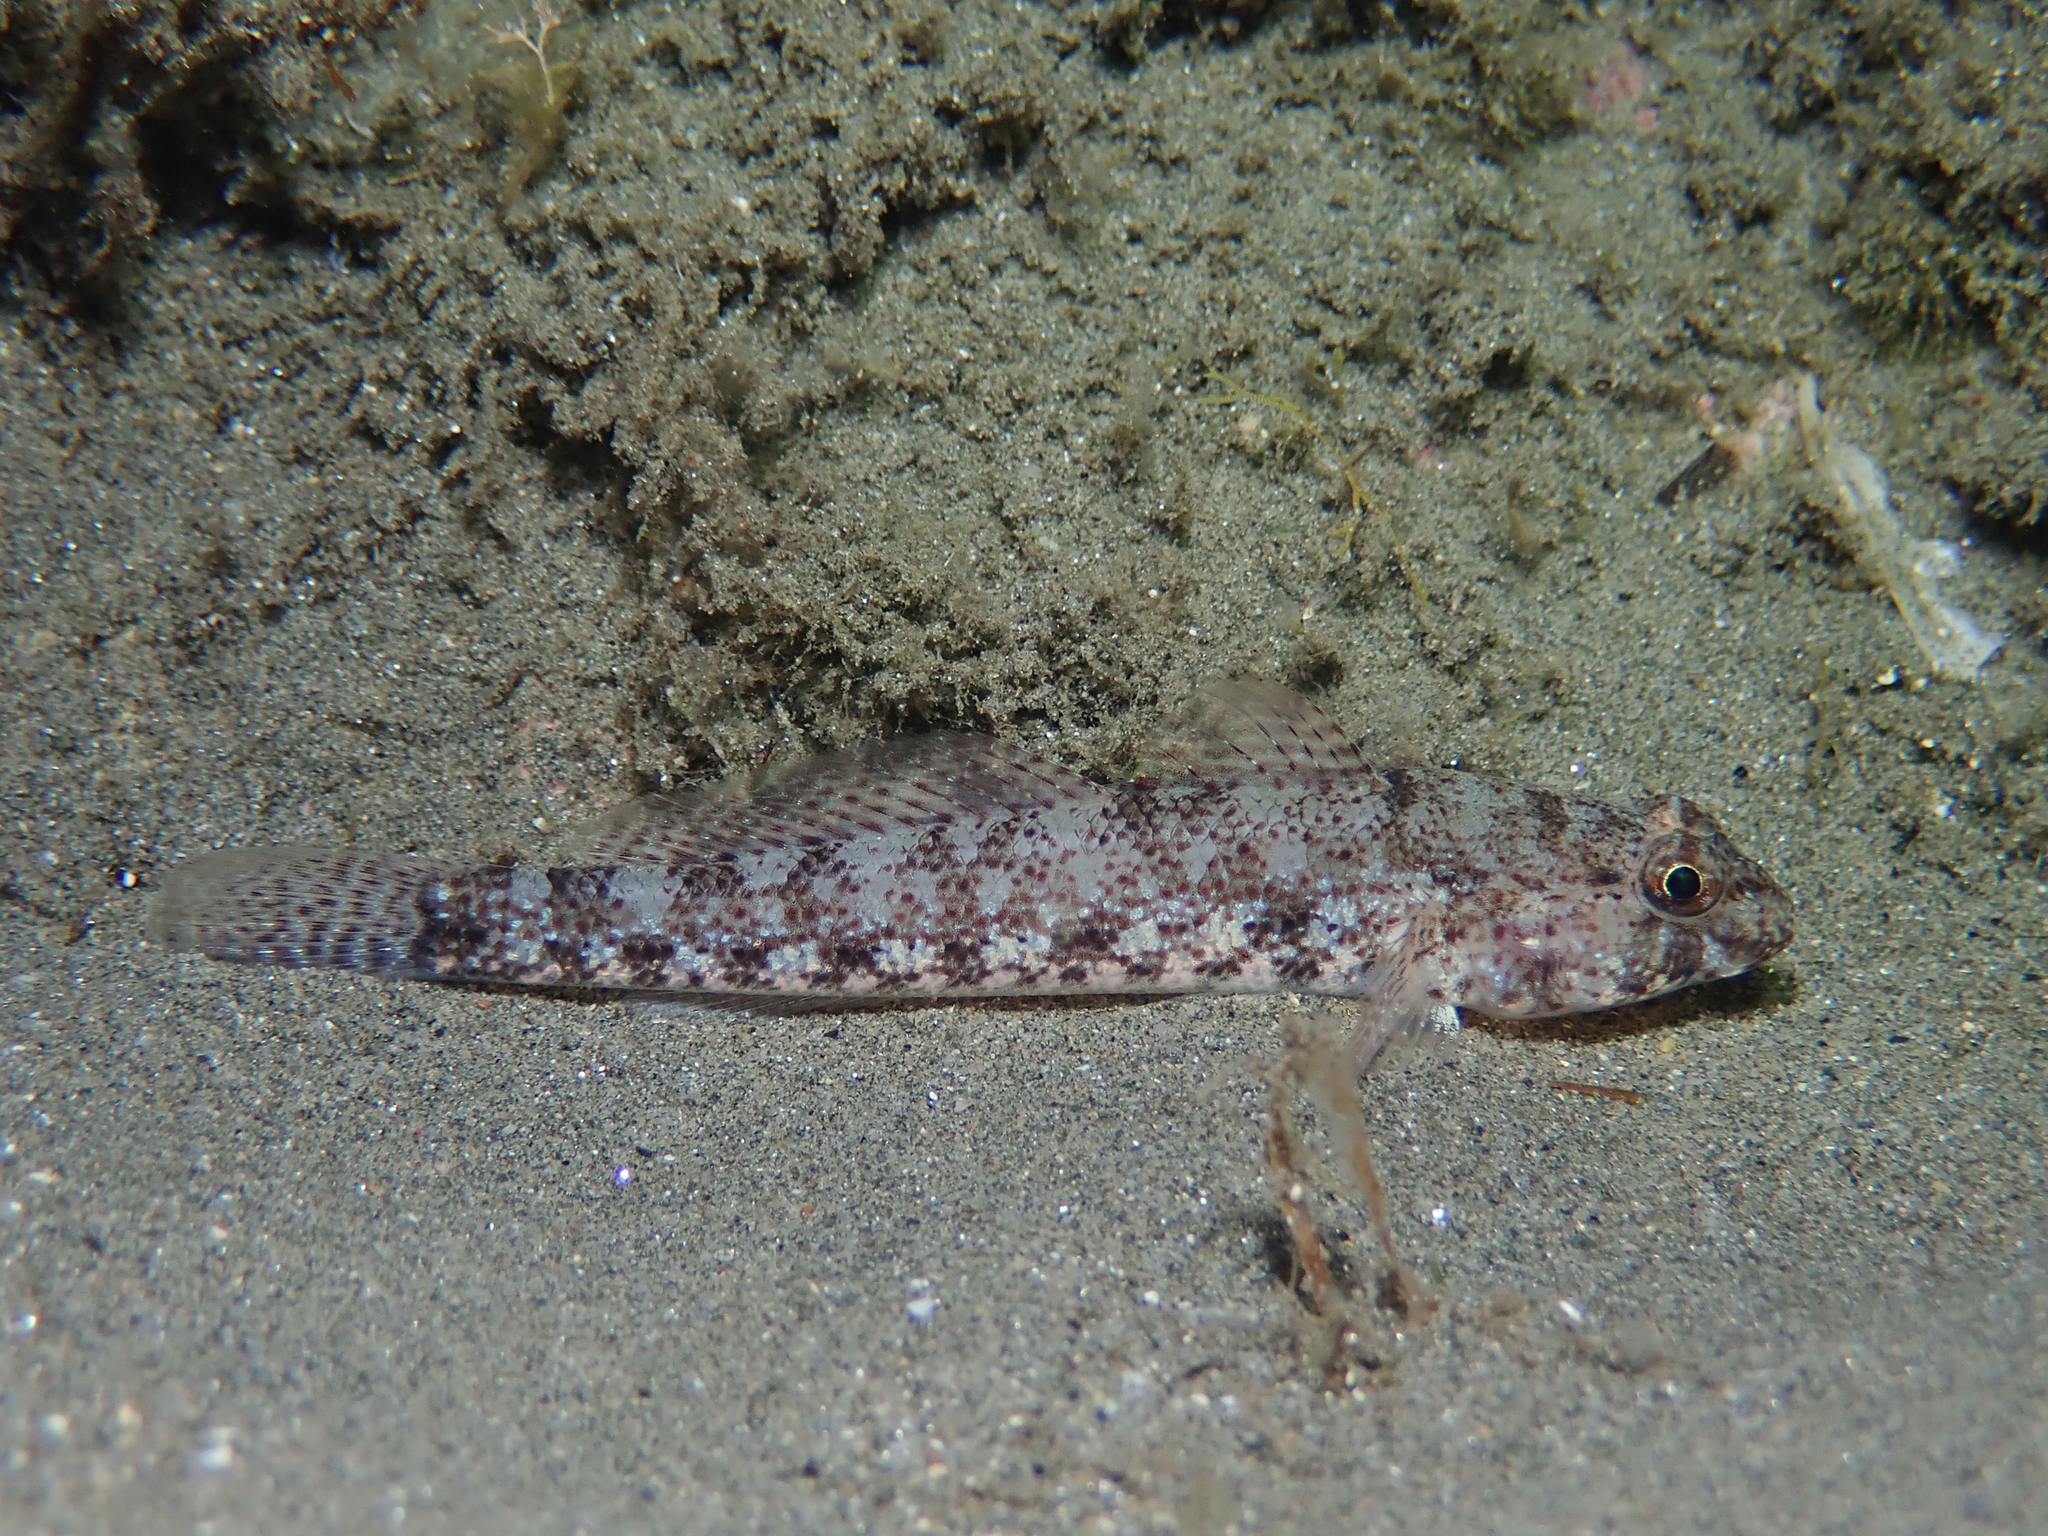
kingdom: Animalia
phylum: Chordata
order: Perciformes
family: Gobiidae
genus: Gobius
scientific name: Gobius incognitus
